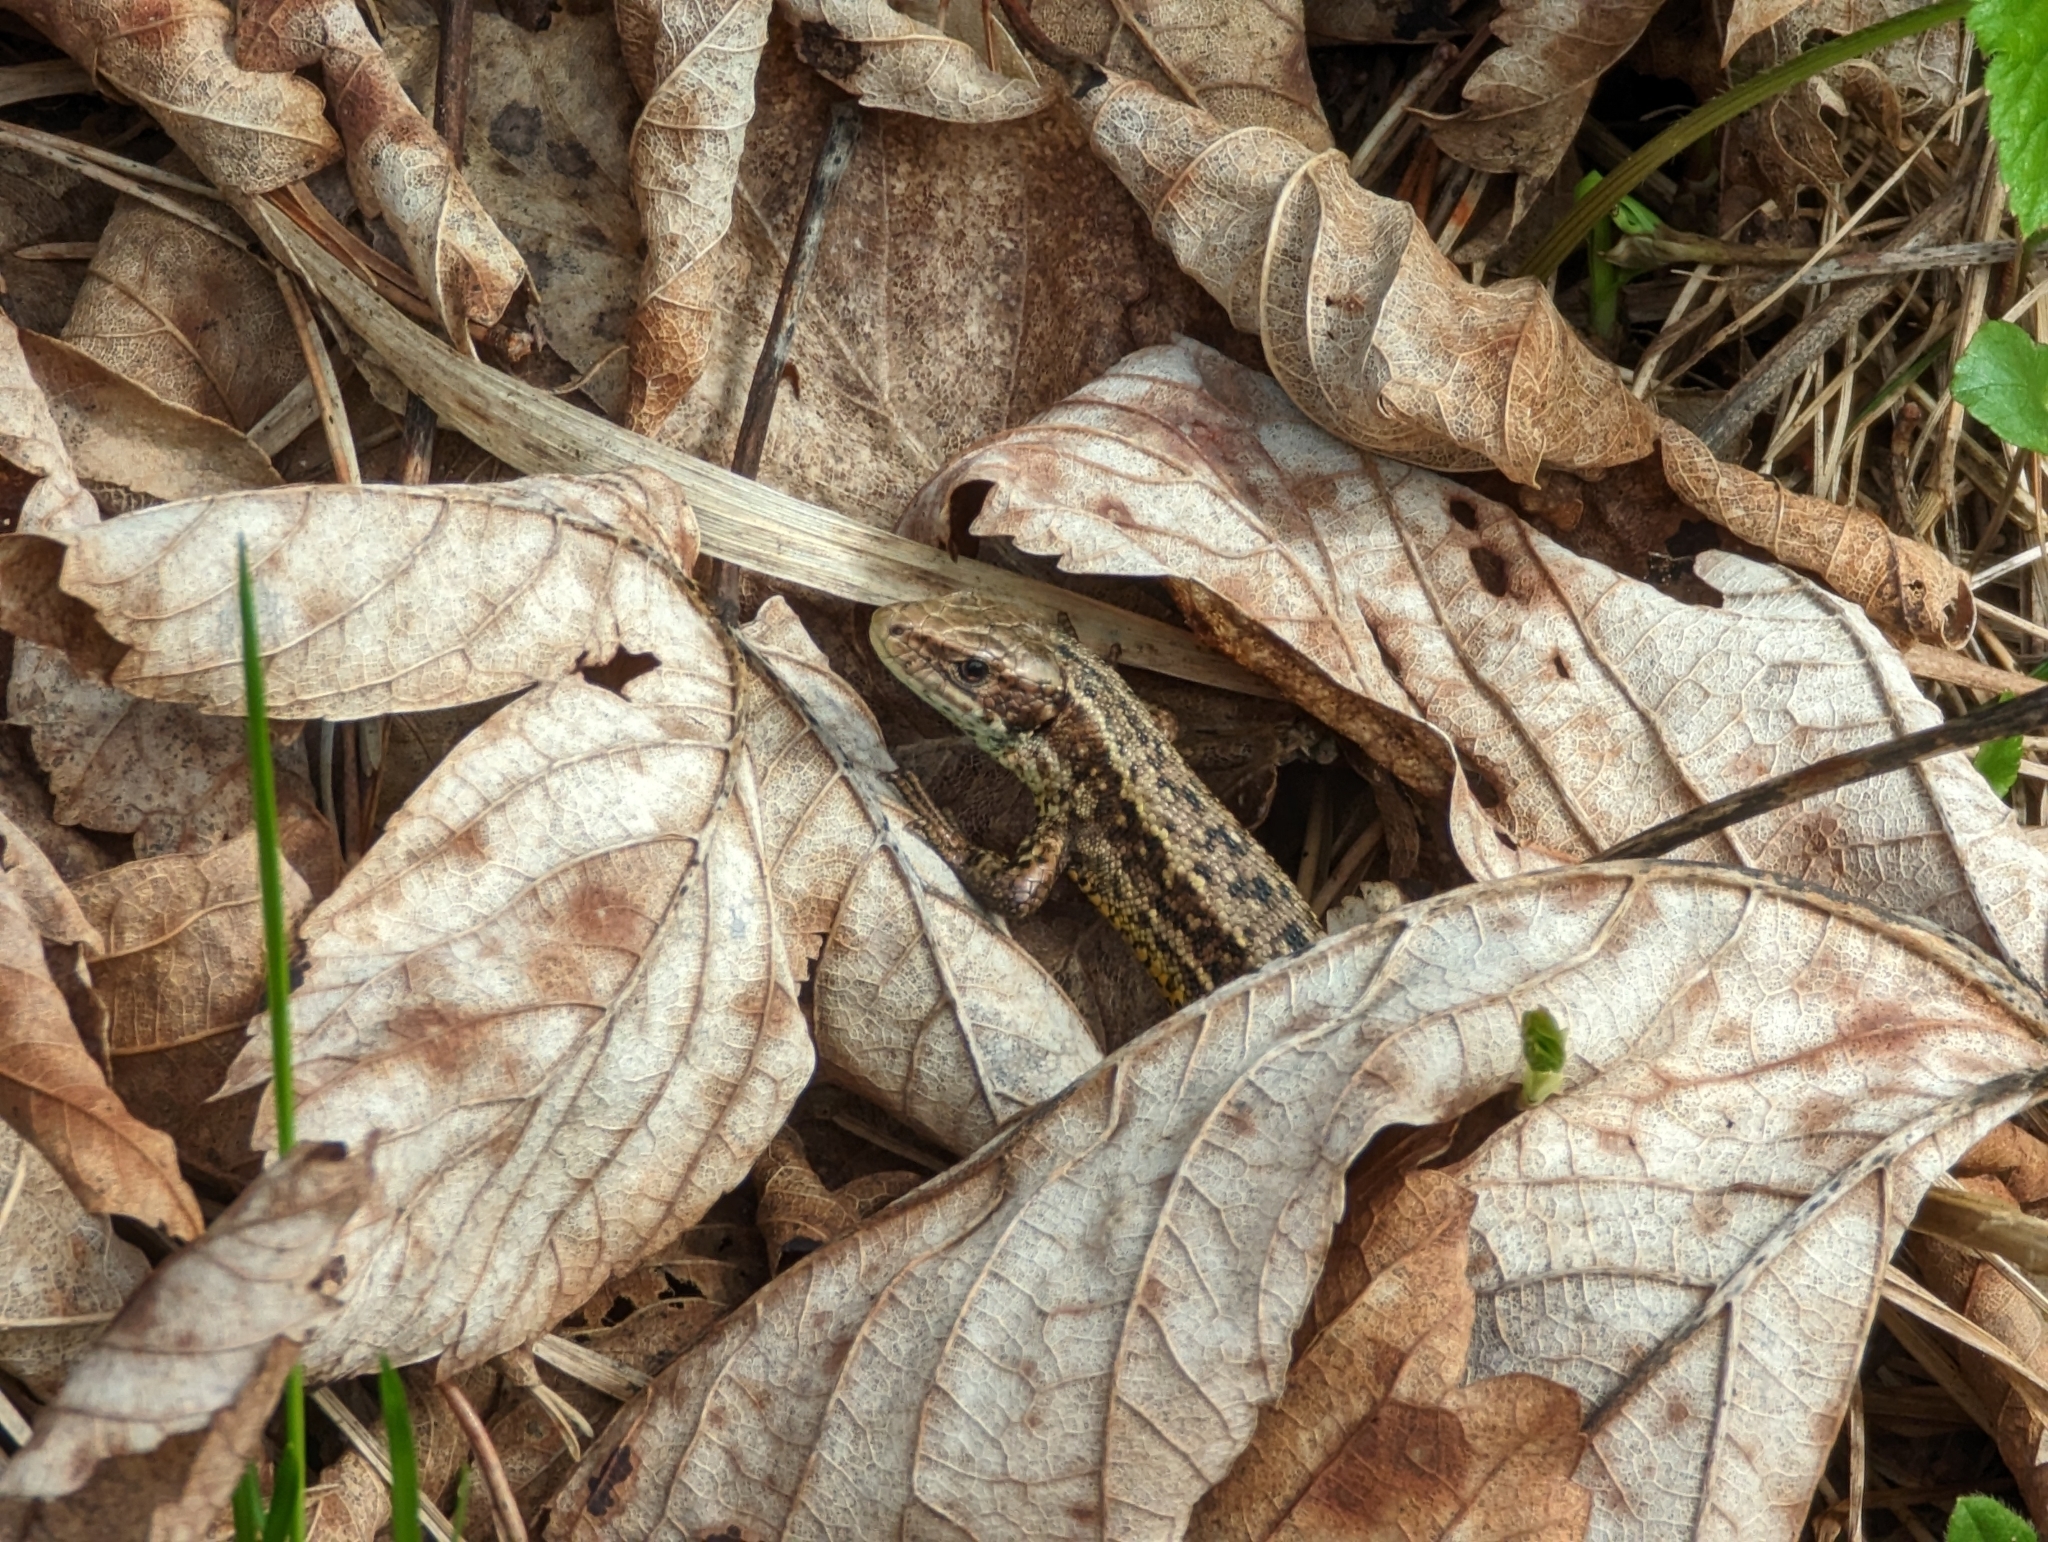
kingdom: Animalia
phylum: Chordata
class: Squamata
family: Lacertidae
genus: Zootoca
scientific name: Zootoca vivipara
